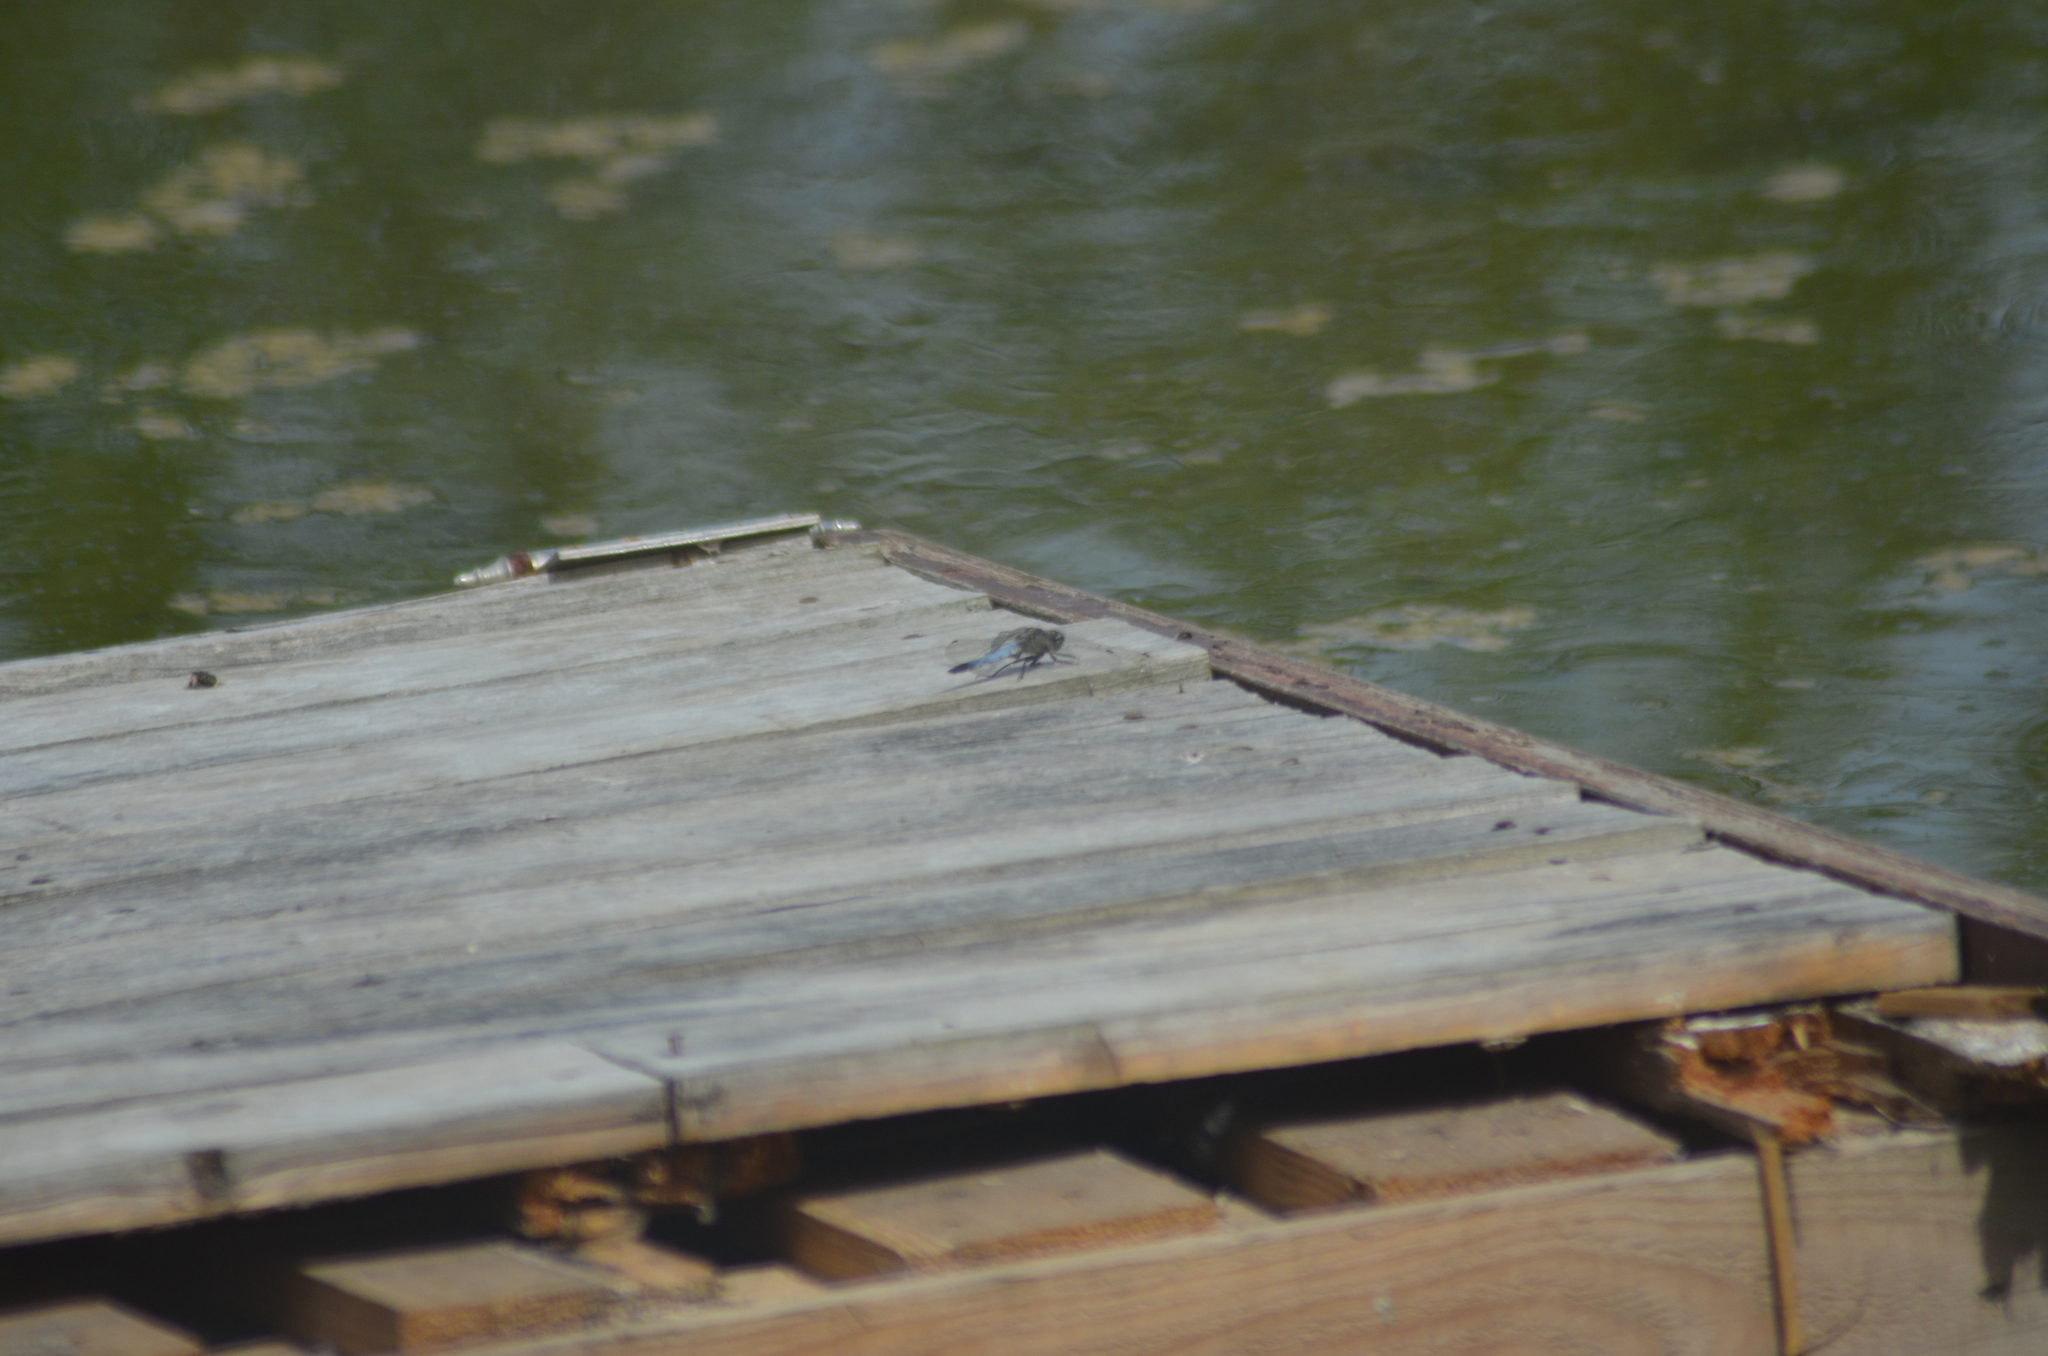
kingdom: Animalia
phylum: Arthropoda
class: Insecta
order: Odonata
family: Libellulidae
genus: Orthetrum
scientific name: Orthetrum cancellatum
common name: Black-tailed skimmer
